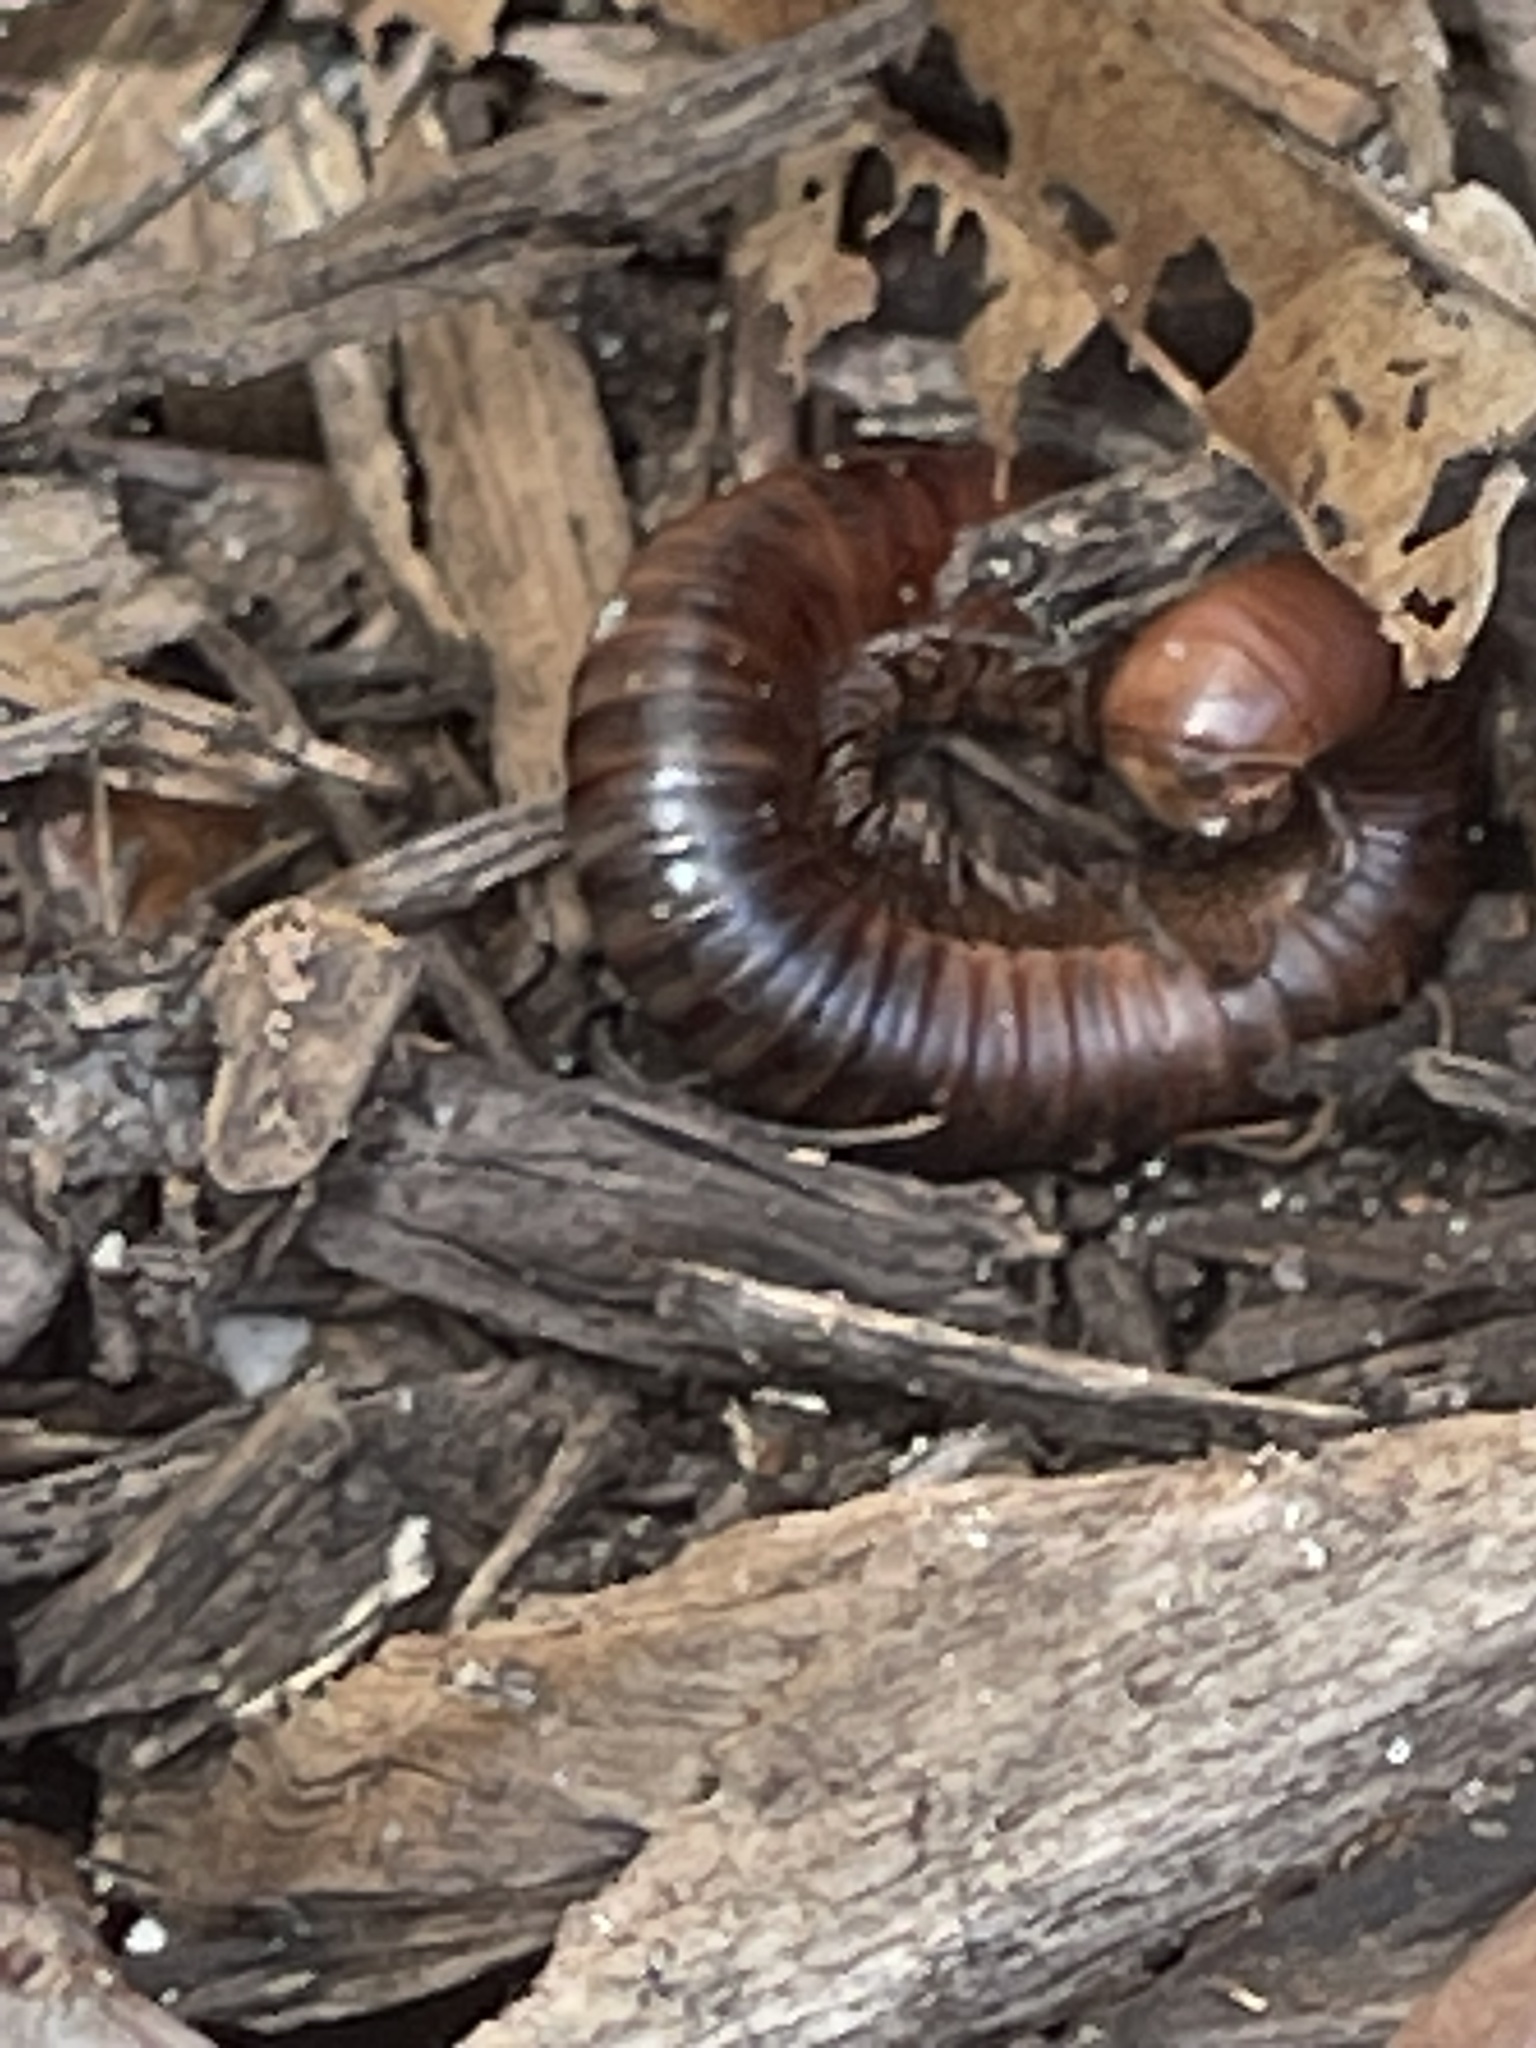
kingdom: Animalia
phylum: Arthropoda
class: Diplopoda
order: Spirobolida
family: Pachybolidae
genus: Trigoniulus
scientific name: Trigoniulus corallinus
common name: Millipede
